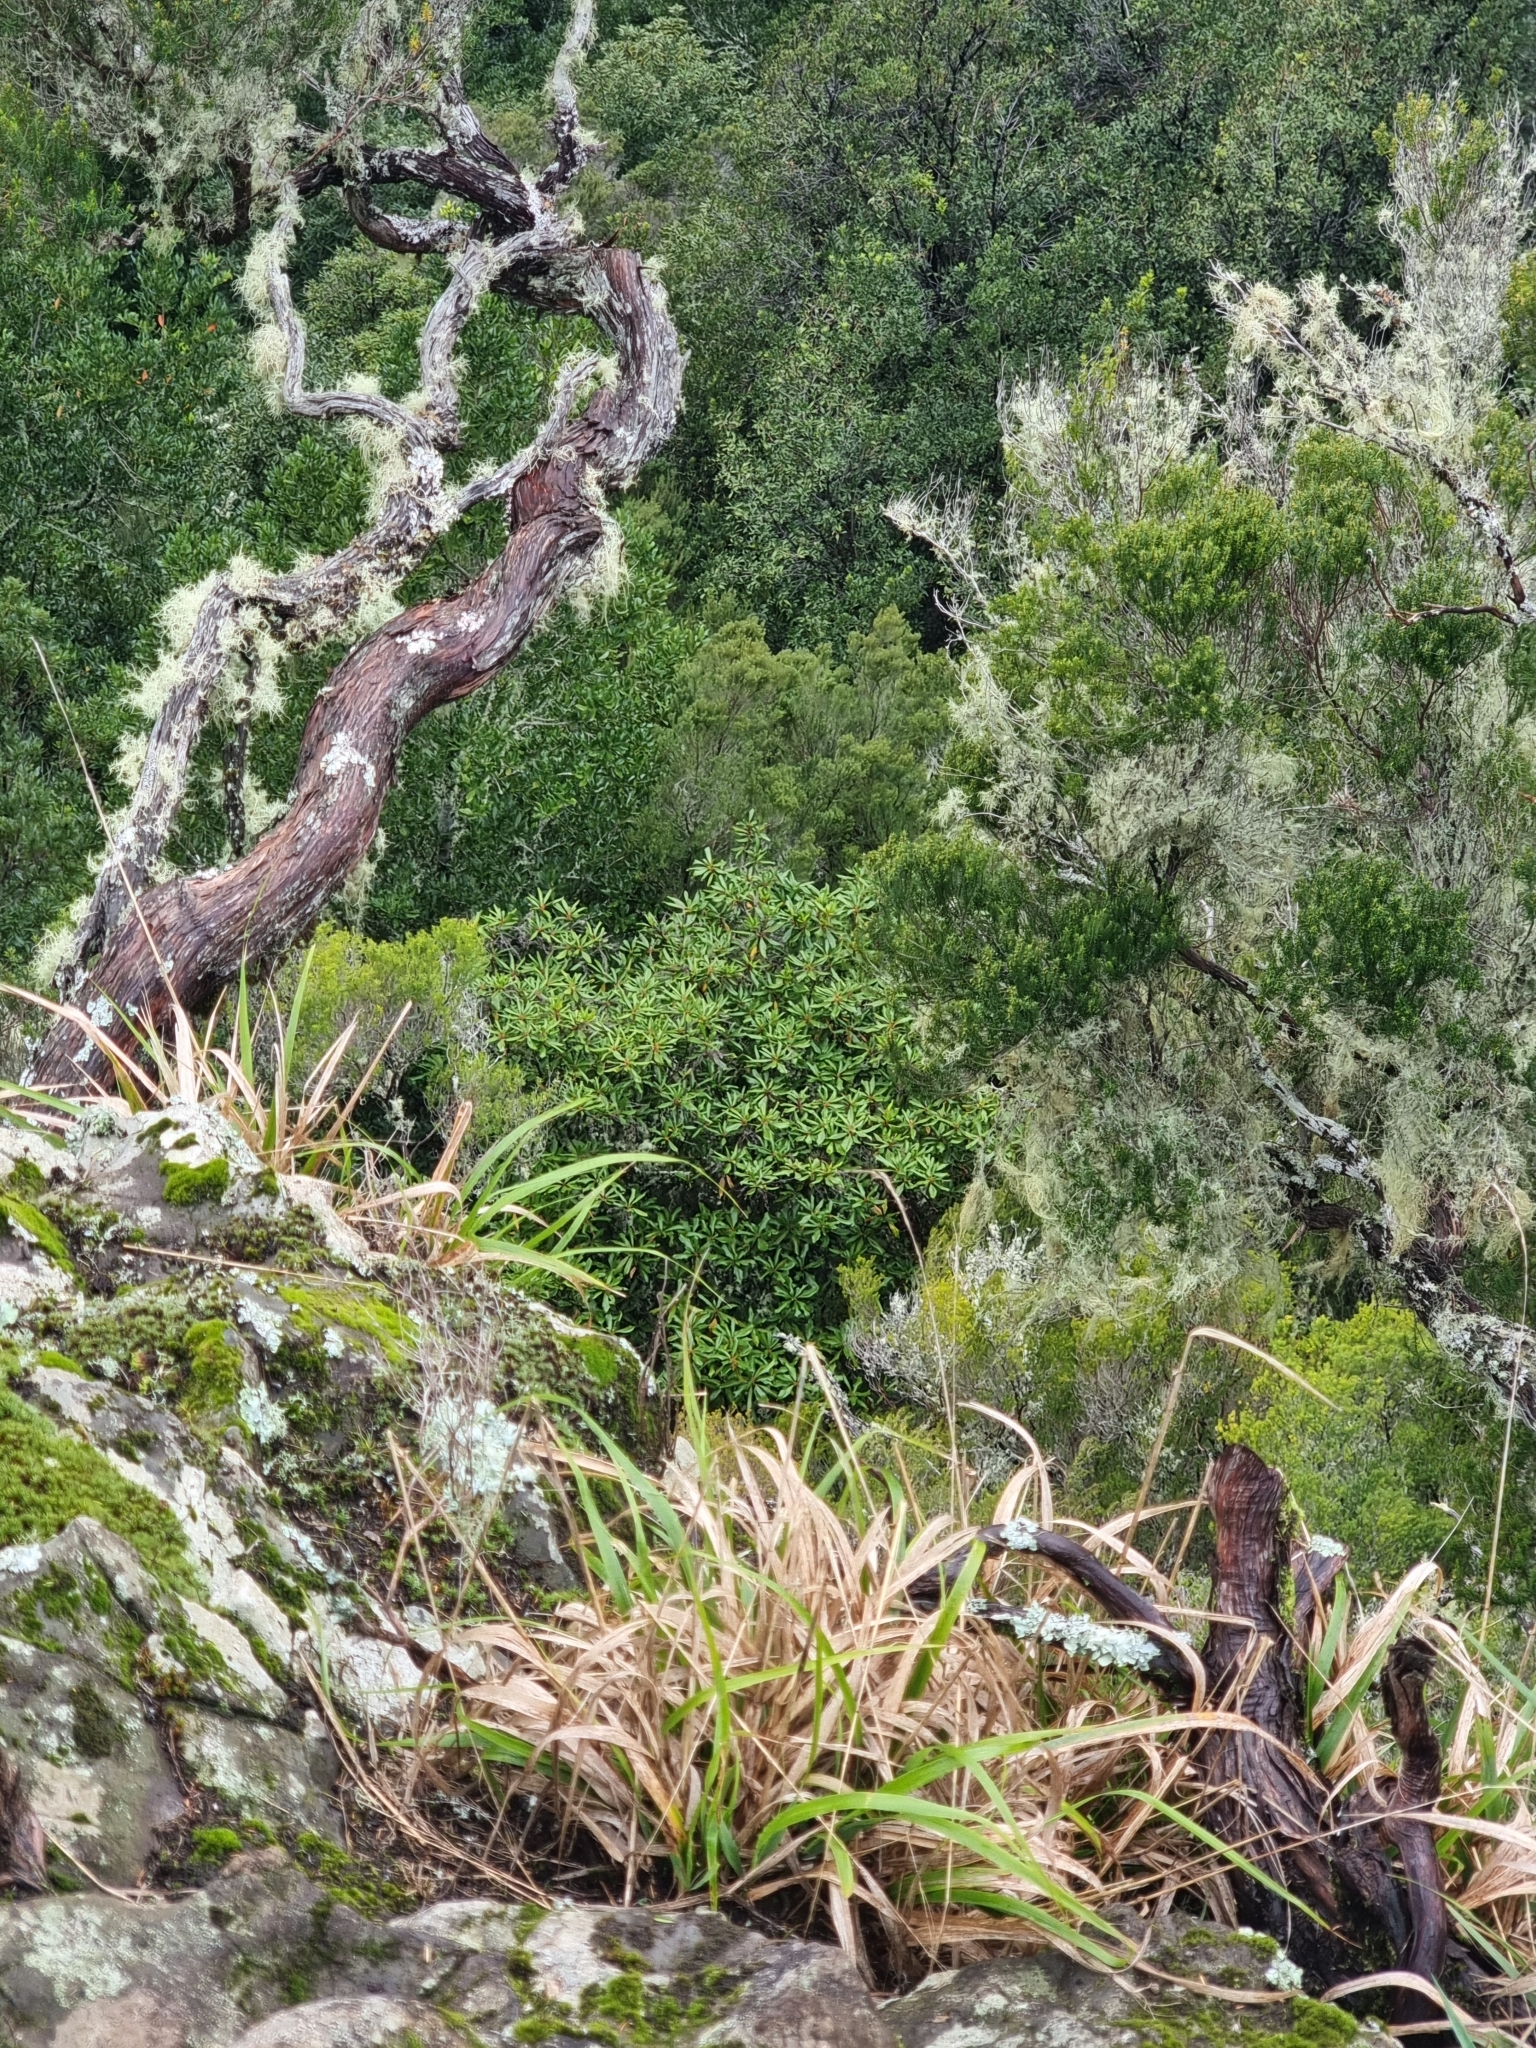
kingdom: Plantae
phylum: Tracheophyta
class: Magnoliopsida
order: Ericales
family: Clethraceae
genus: Clethra
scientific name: Clethra arborea
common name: Lily-of-the-valley-tree
